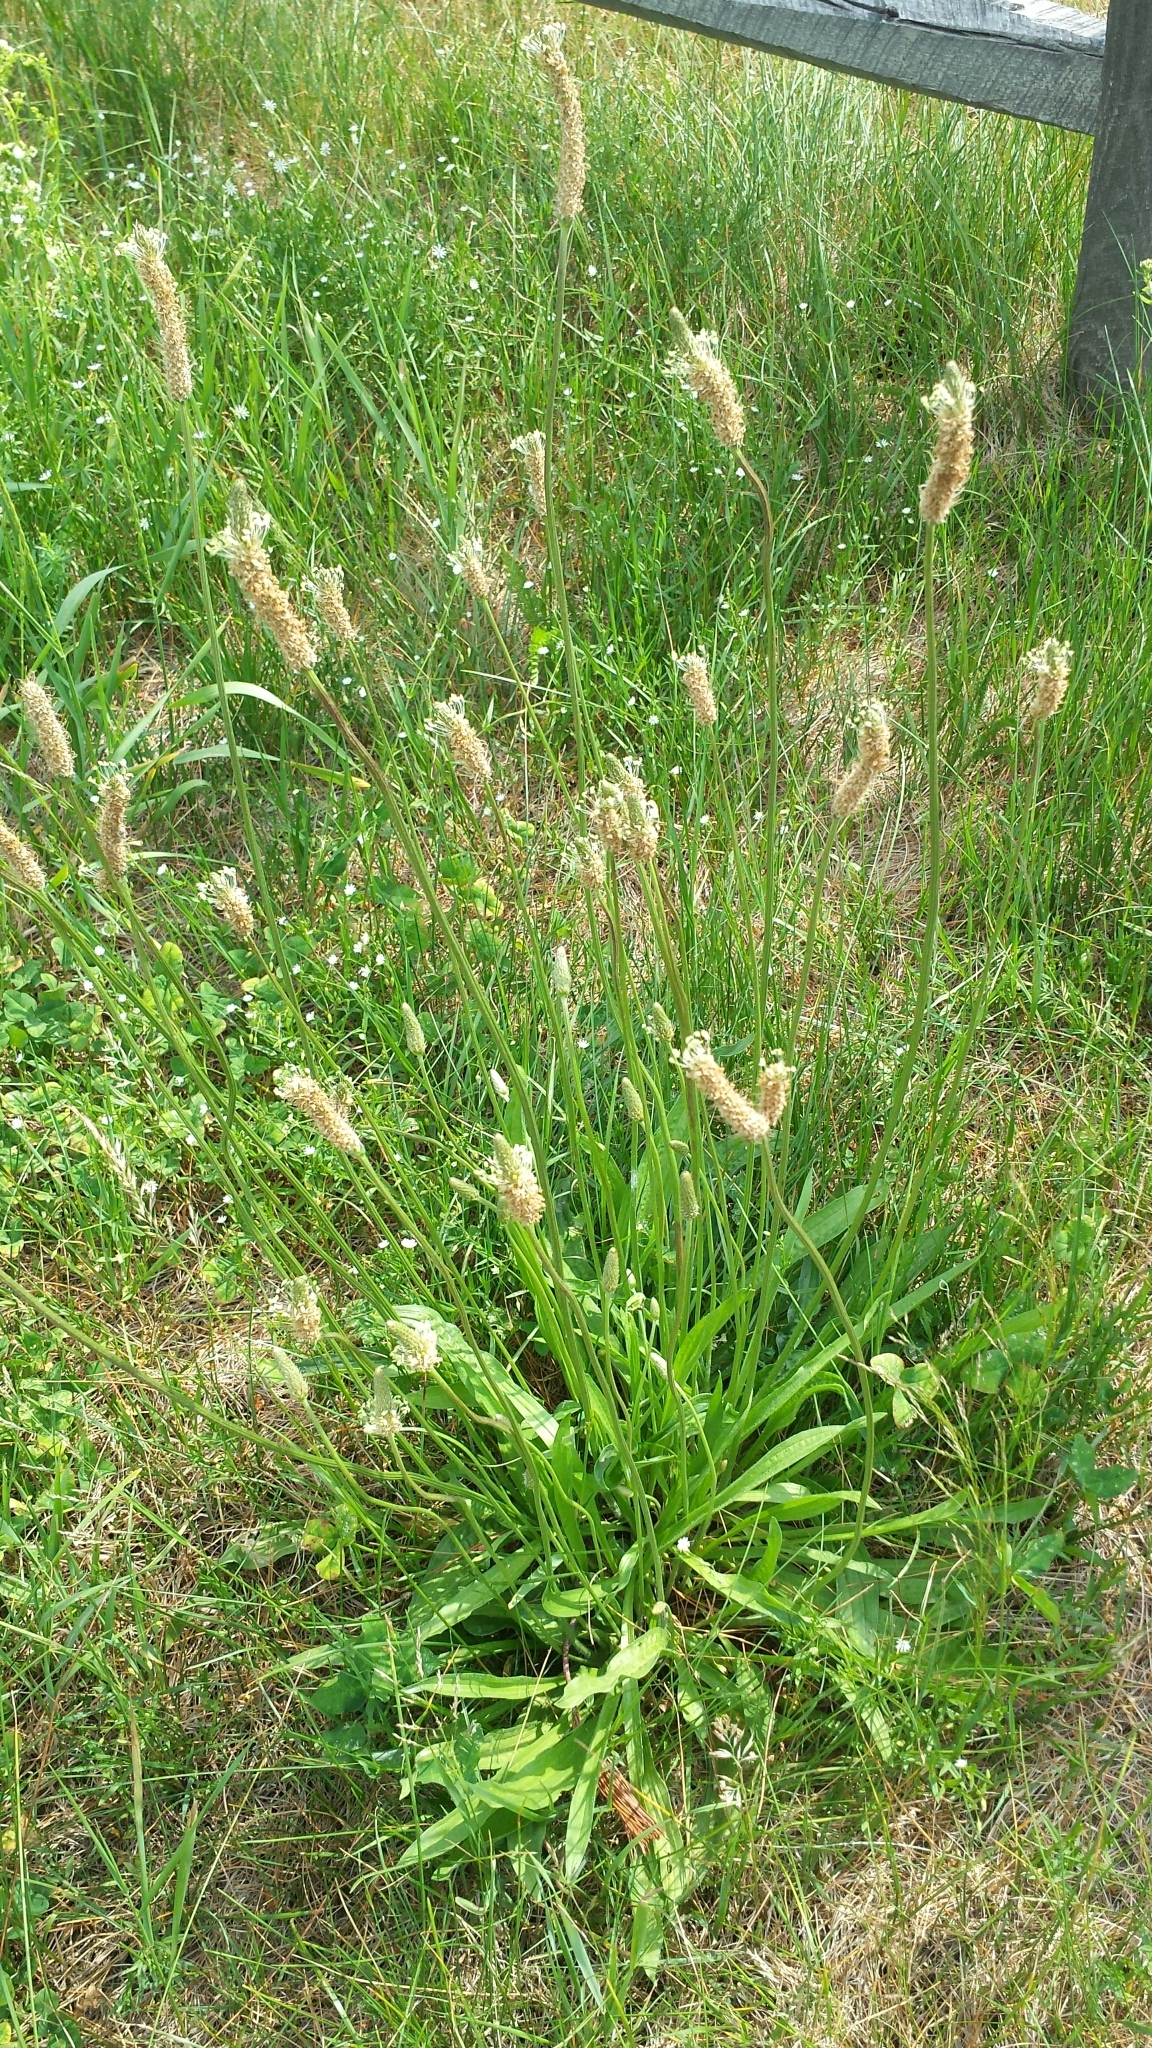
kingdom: Plantae
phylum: Tracheophyta
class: Magnoliopsida
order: Lamiales
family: Plantaginaceae
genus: Plantago
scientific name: Plantago lanceolata
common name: Ribwort plantain
